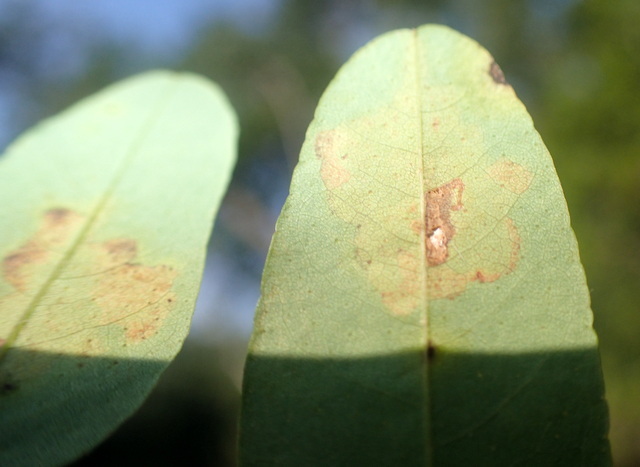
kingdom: Animalia
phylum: Arthropoda
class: Insecta
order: Lepidoptera
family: Gracillariidae
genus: Parectopa
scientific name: Parectopa robiniella
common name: Locust digitate leafminer
